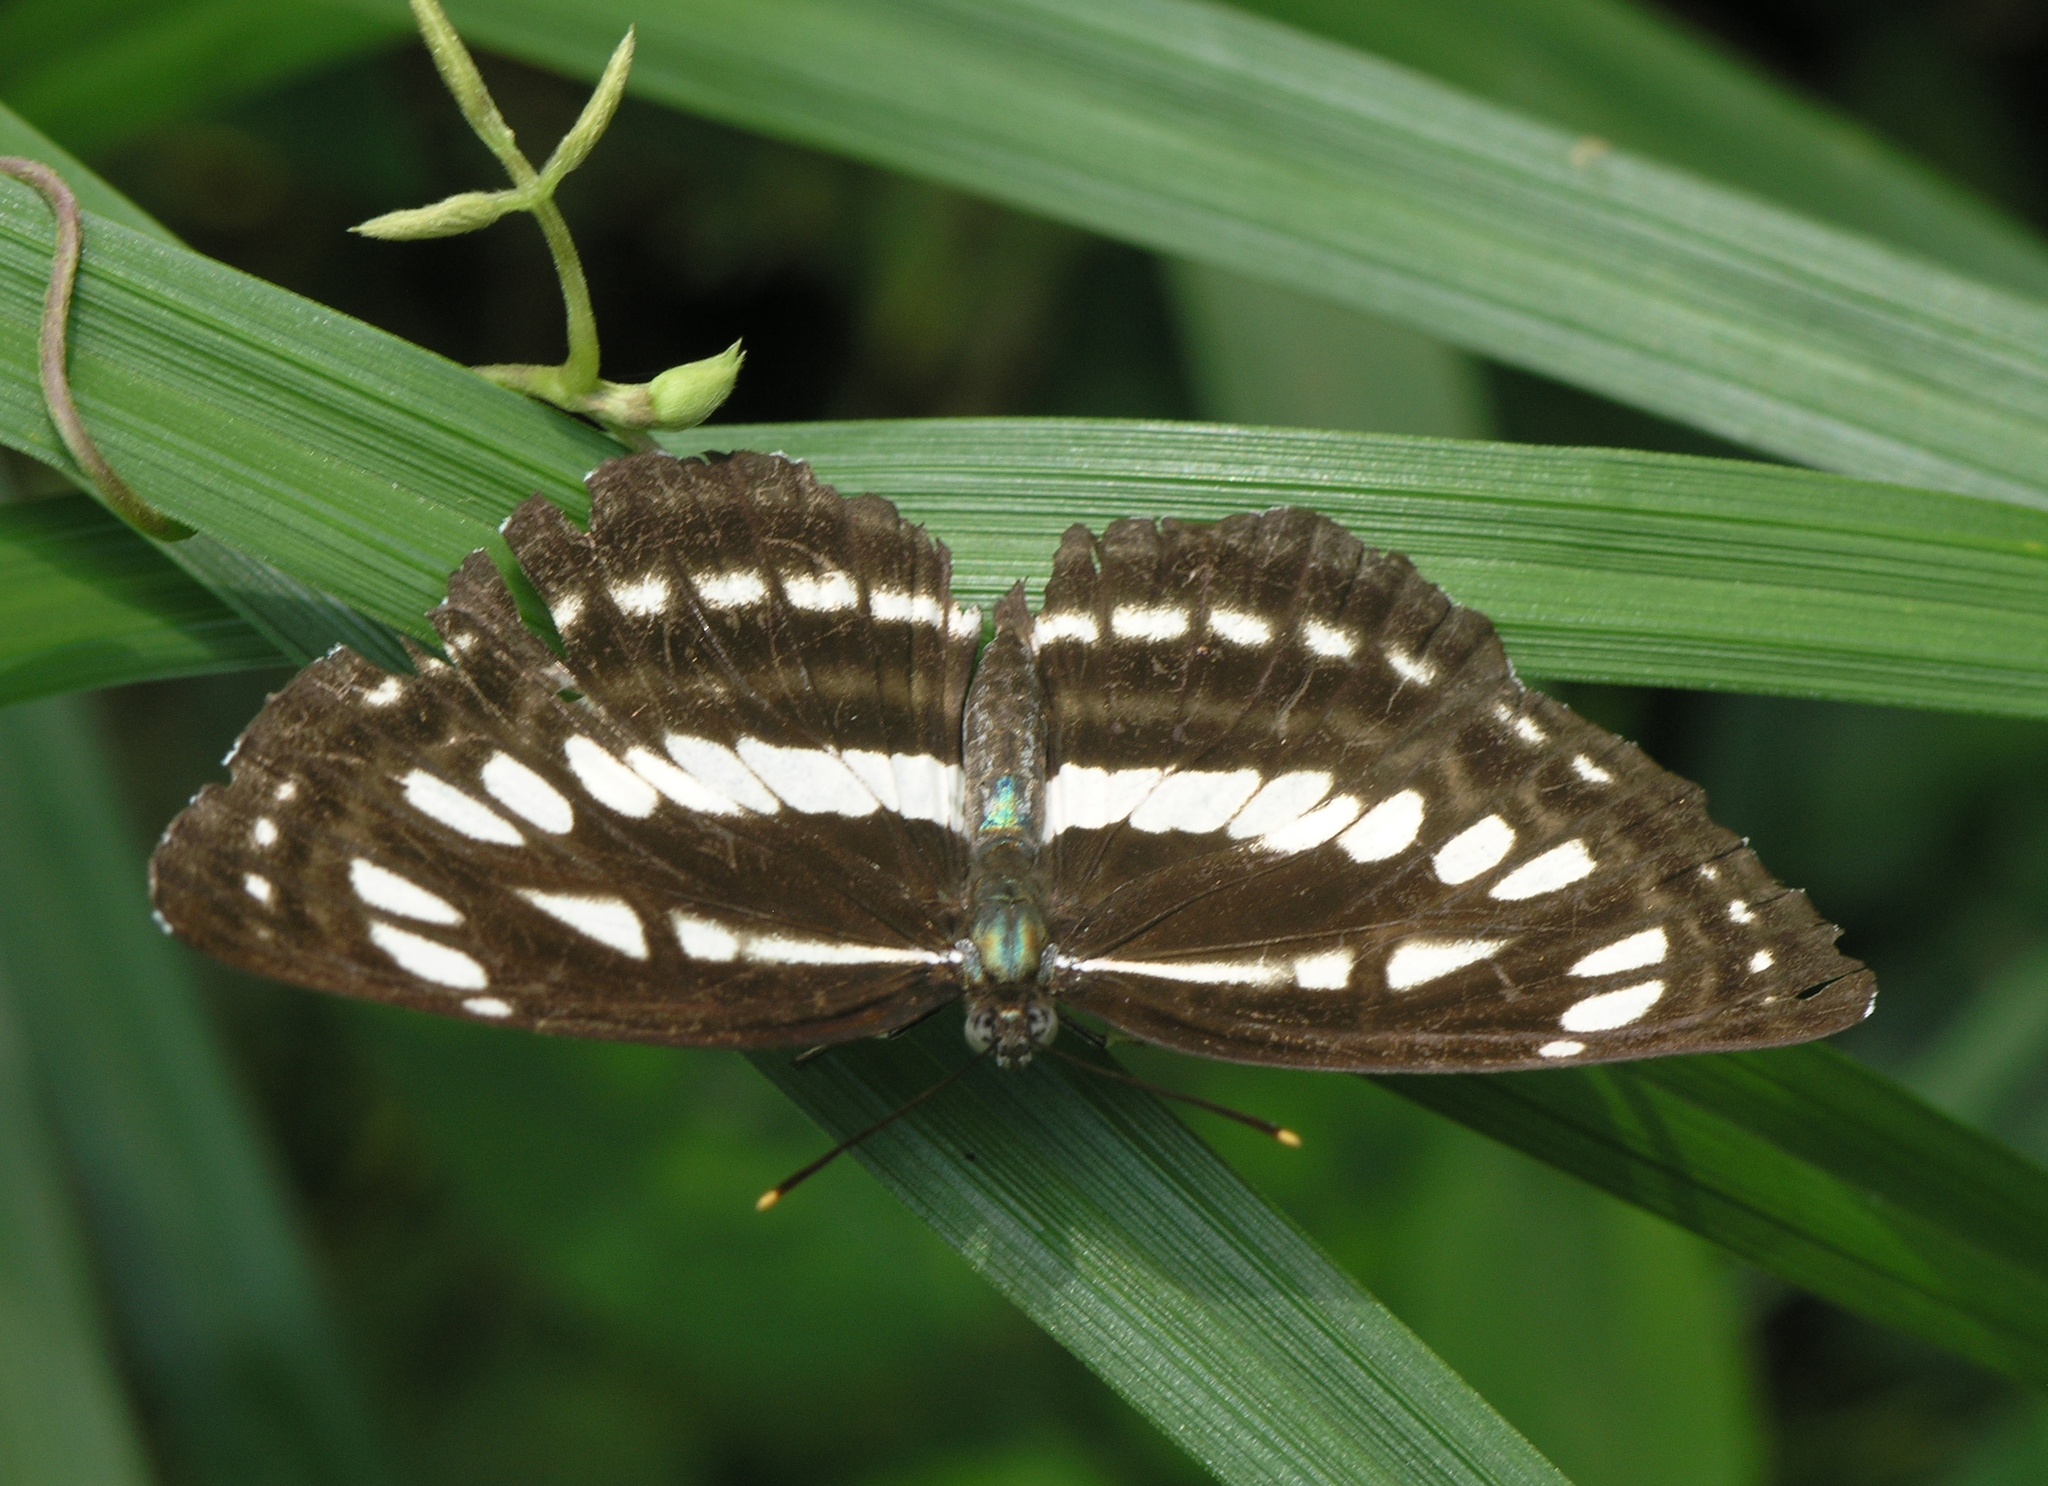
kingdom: Animalia
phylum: Arthropoda
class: Insecta
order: Lepidoptera
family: Nymphalidae
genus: Neptis
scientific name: Neptis hylas
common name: Common sailer
